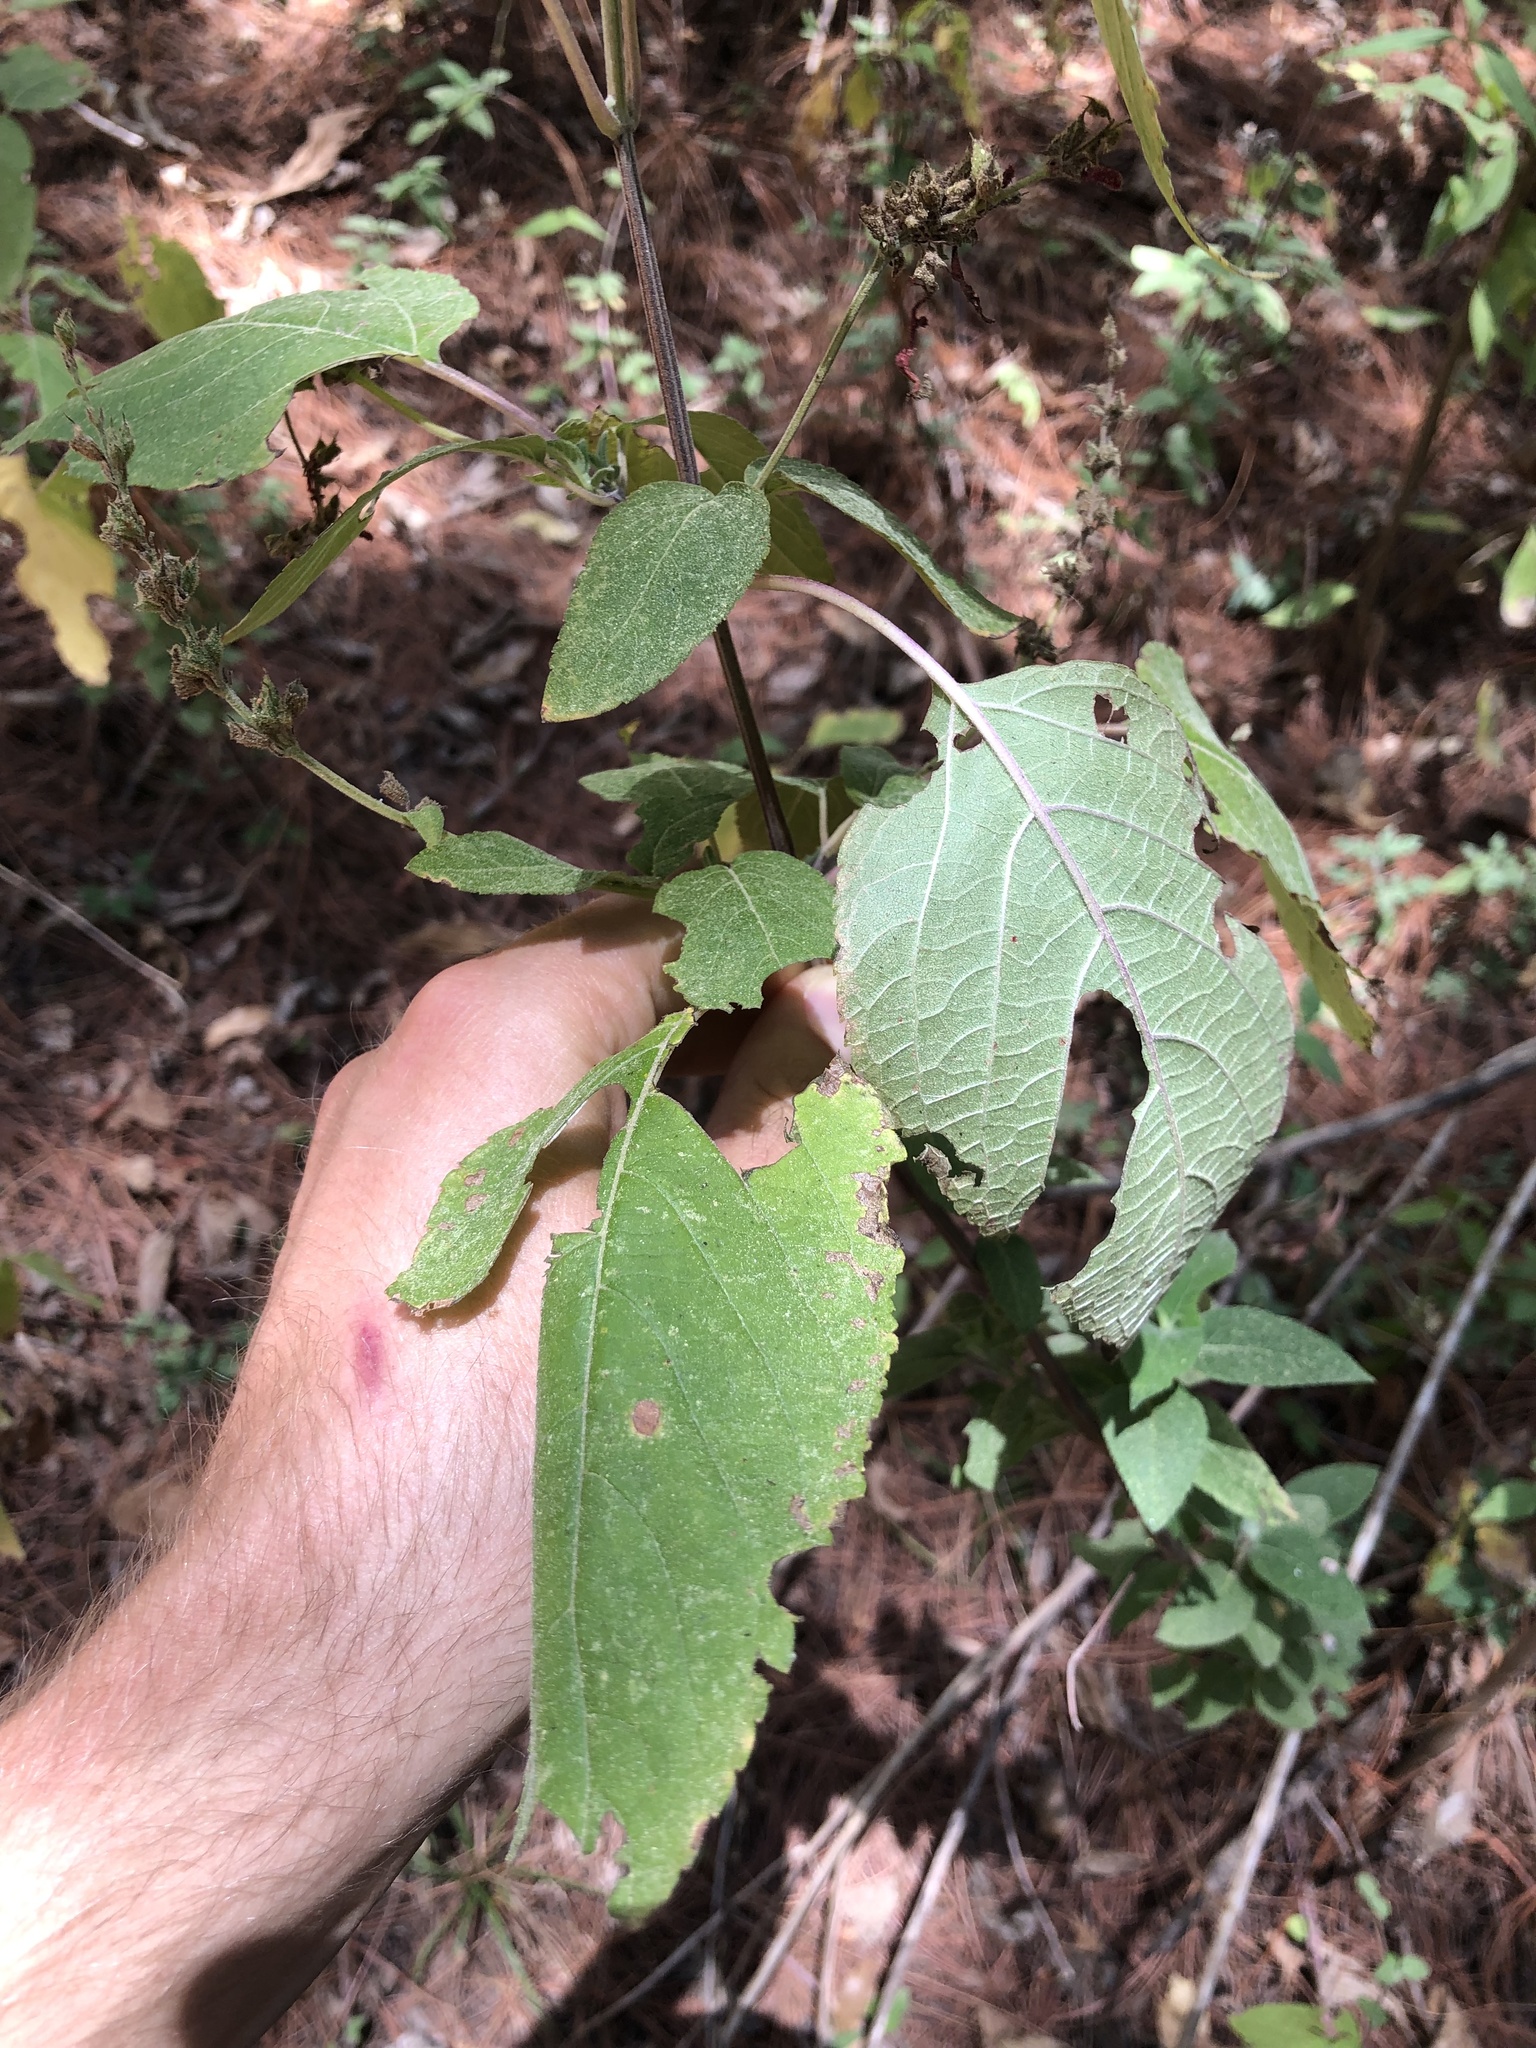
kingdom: Plantae
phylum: Tracheophyta
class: Magnoliopsida
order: Lamiales
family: Lamiaceae
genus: Salvia
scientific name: Salvia cinnabarina
